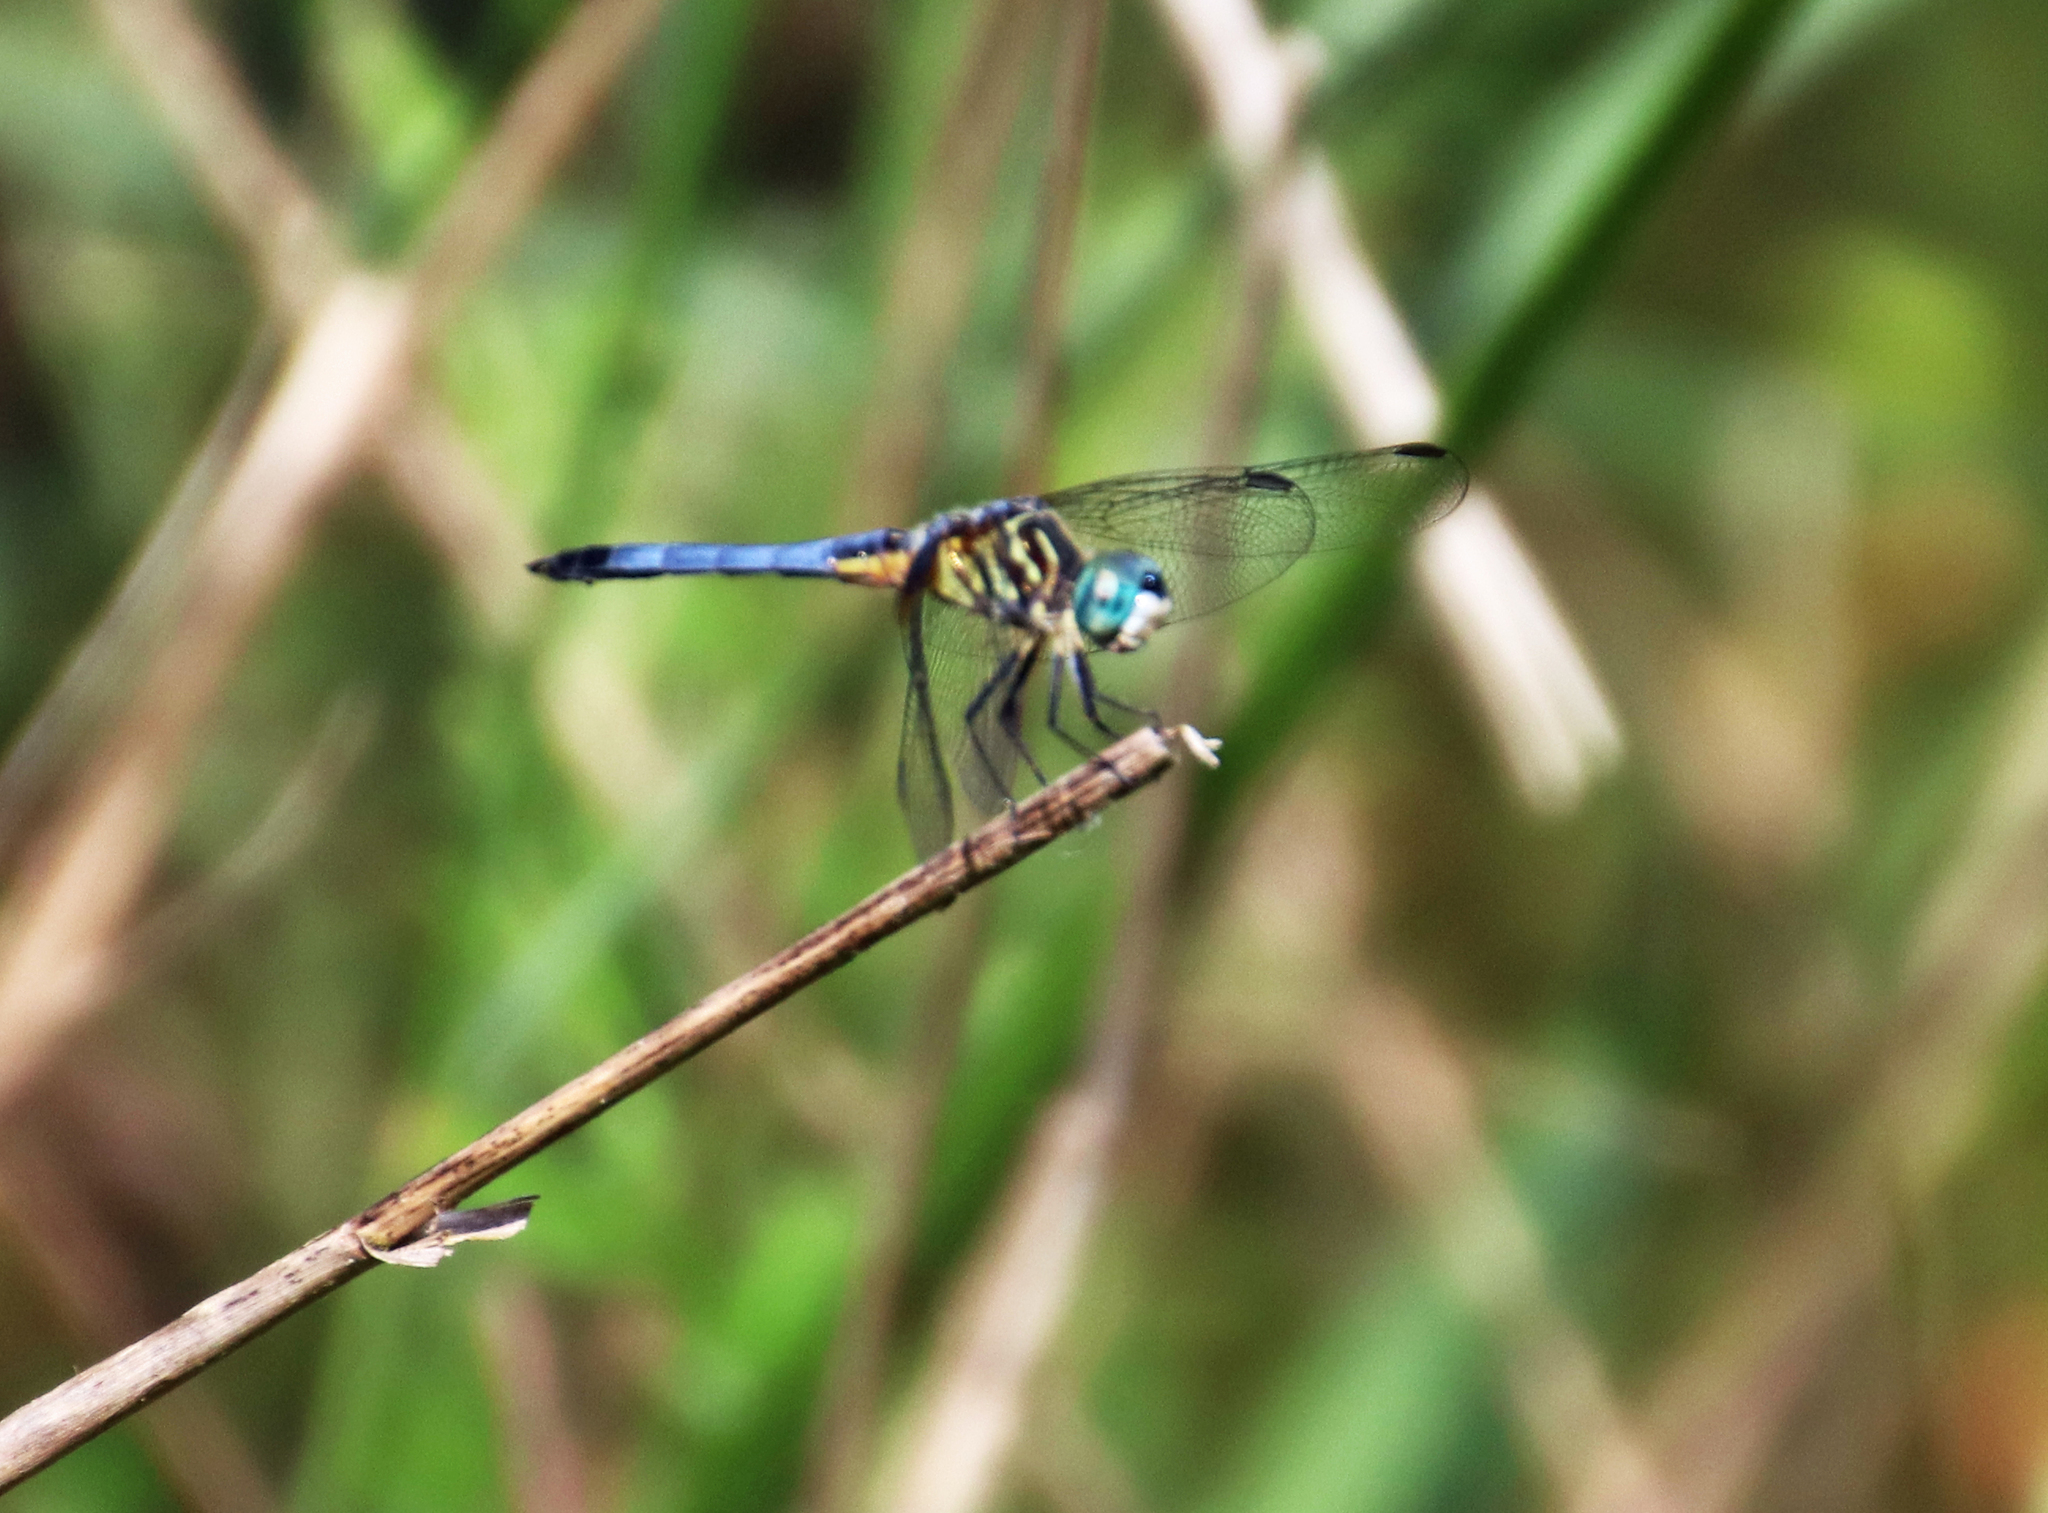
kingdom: Animalia
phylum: Arthropoda
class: Insecta
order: Odonata
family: Libellulidae
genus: Pachydiplax
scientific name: Pachydiplax longipennis
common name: Blue dasher
